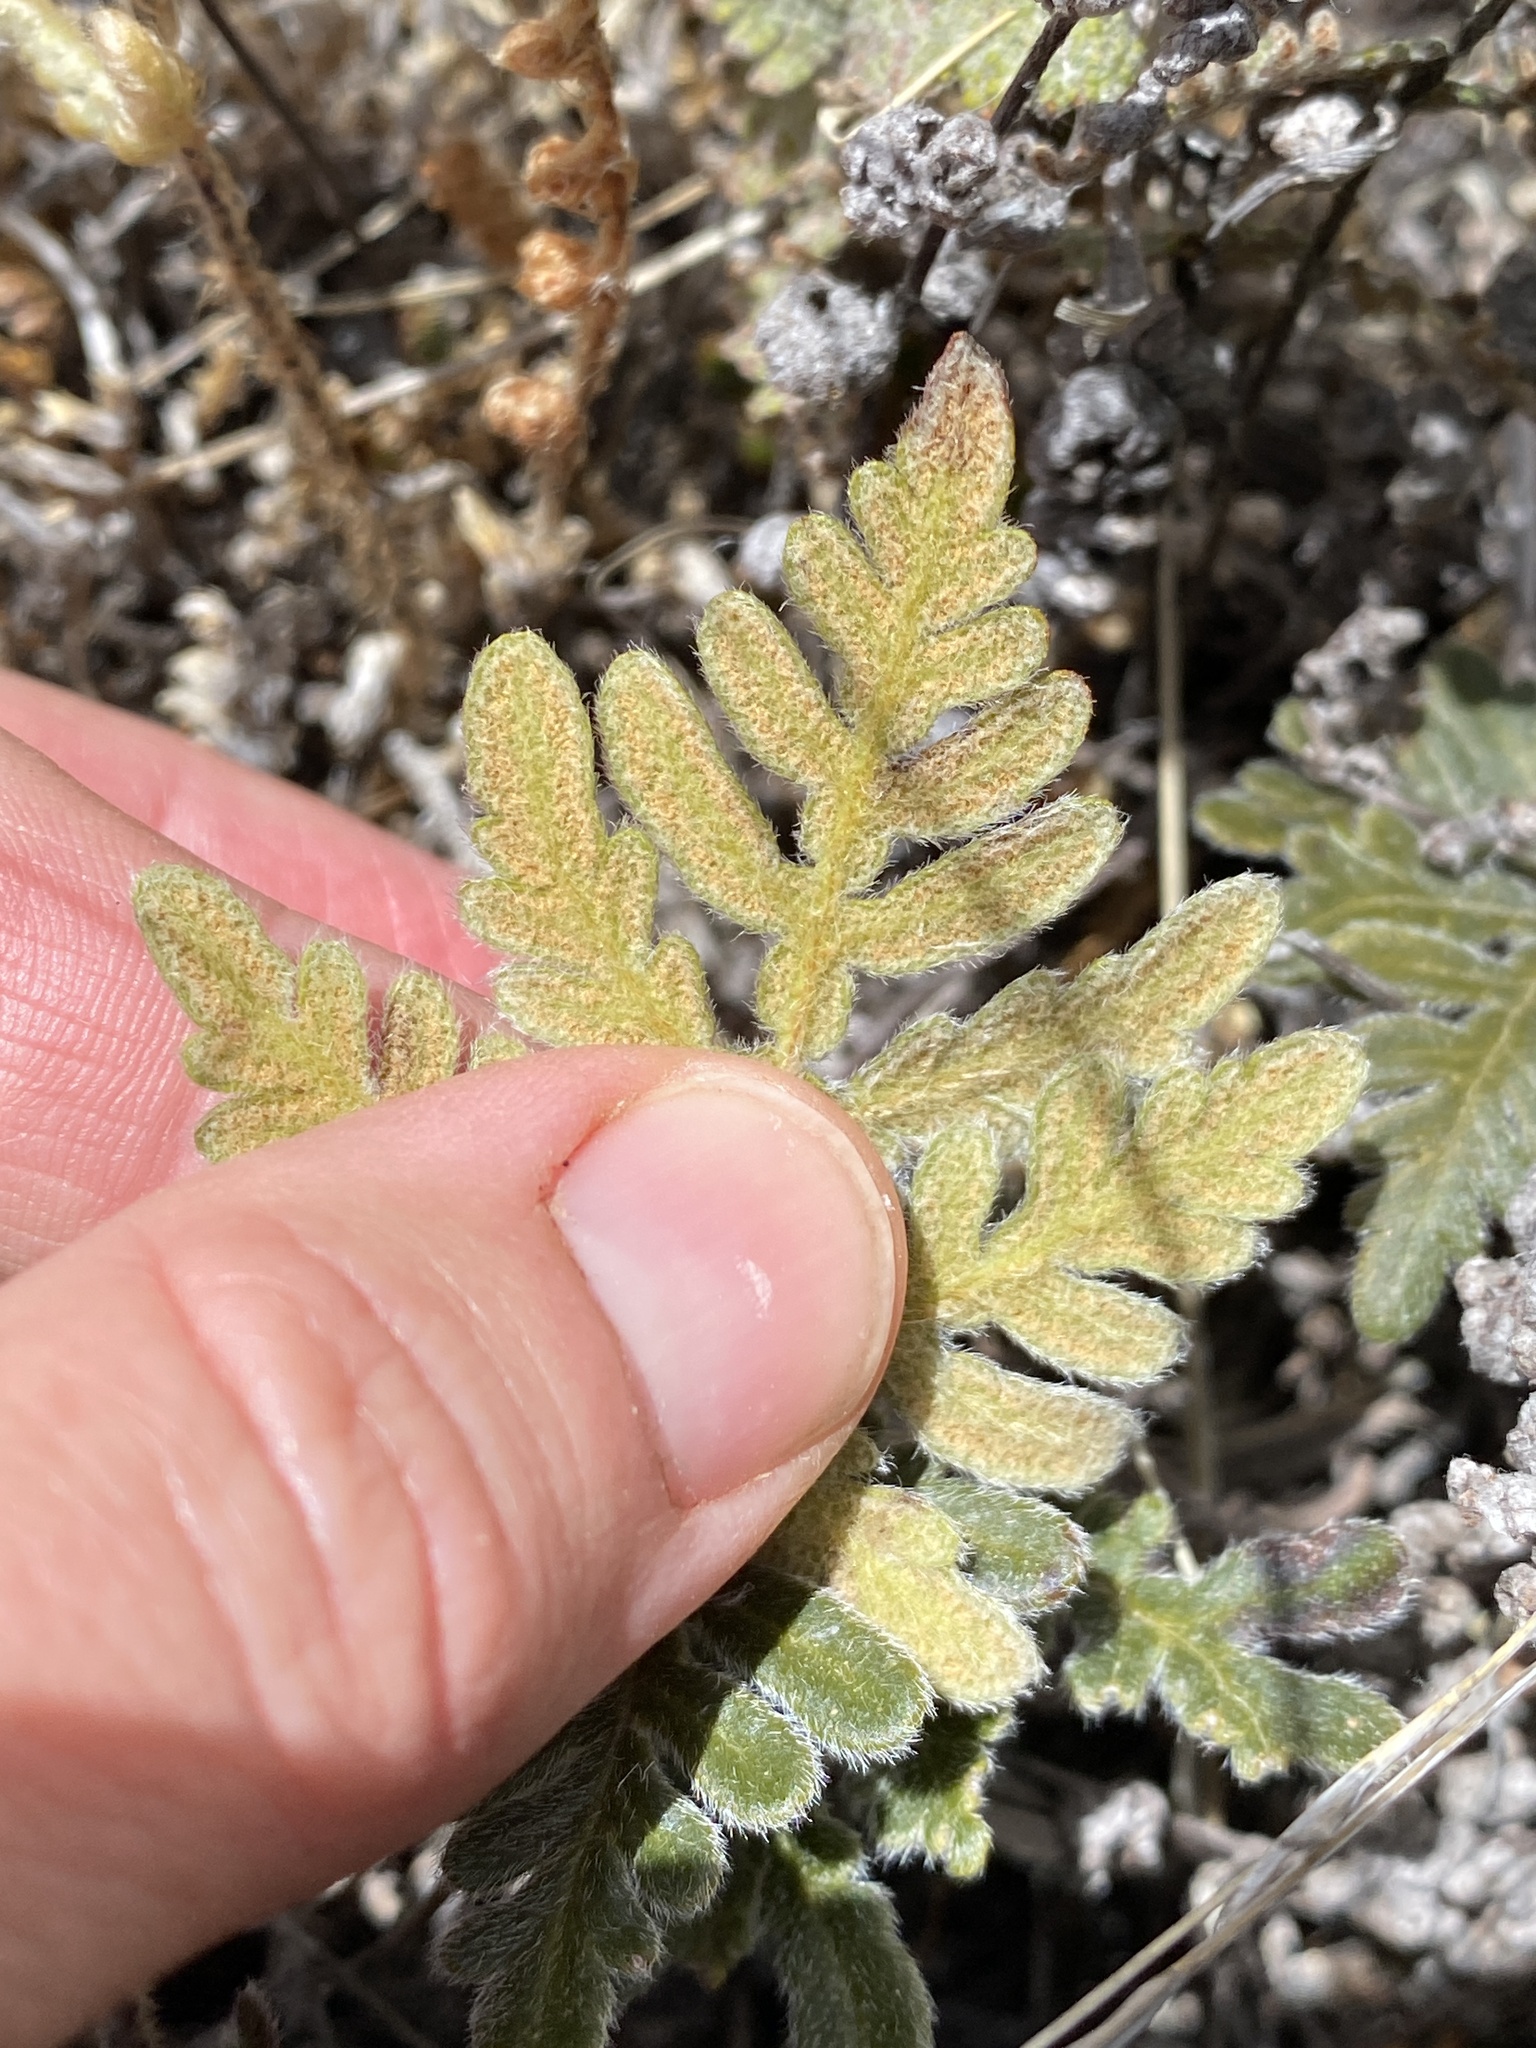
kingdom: Plantae
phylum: Tracheophyta
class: Polypodiopsida
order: Polypodiales
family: Pteridaceae
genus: Bommeria
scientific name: Bommeria hispida
